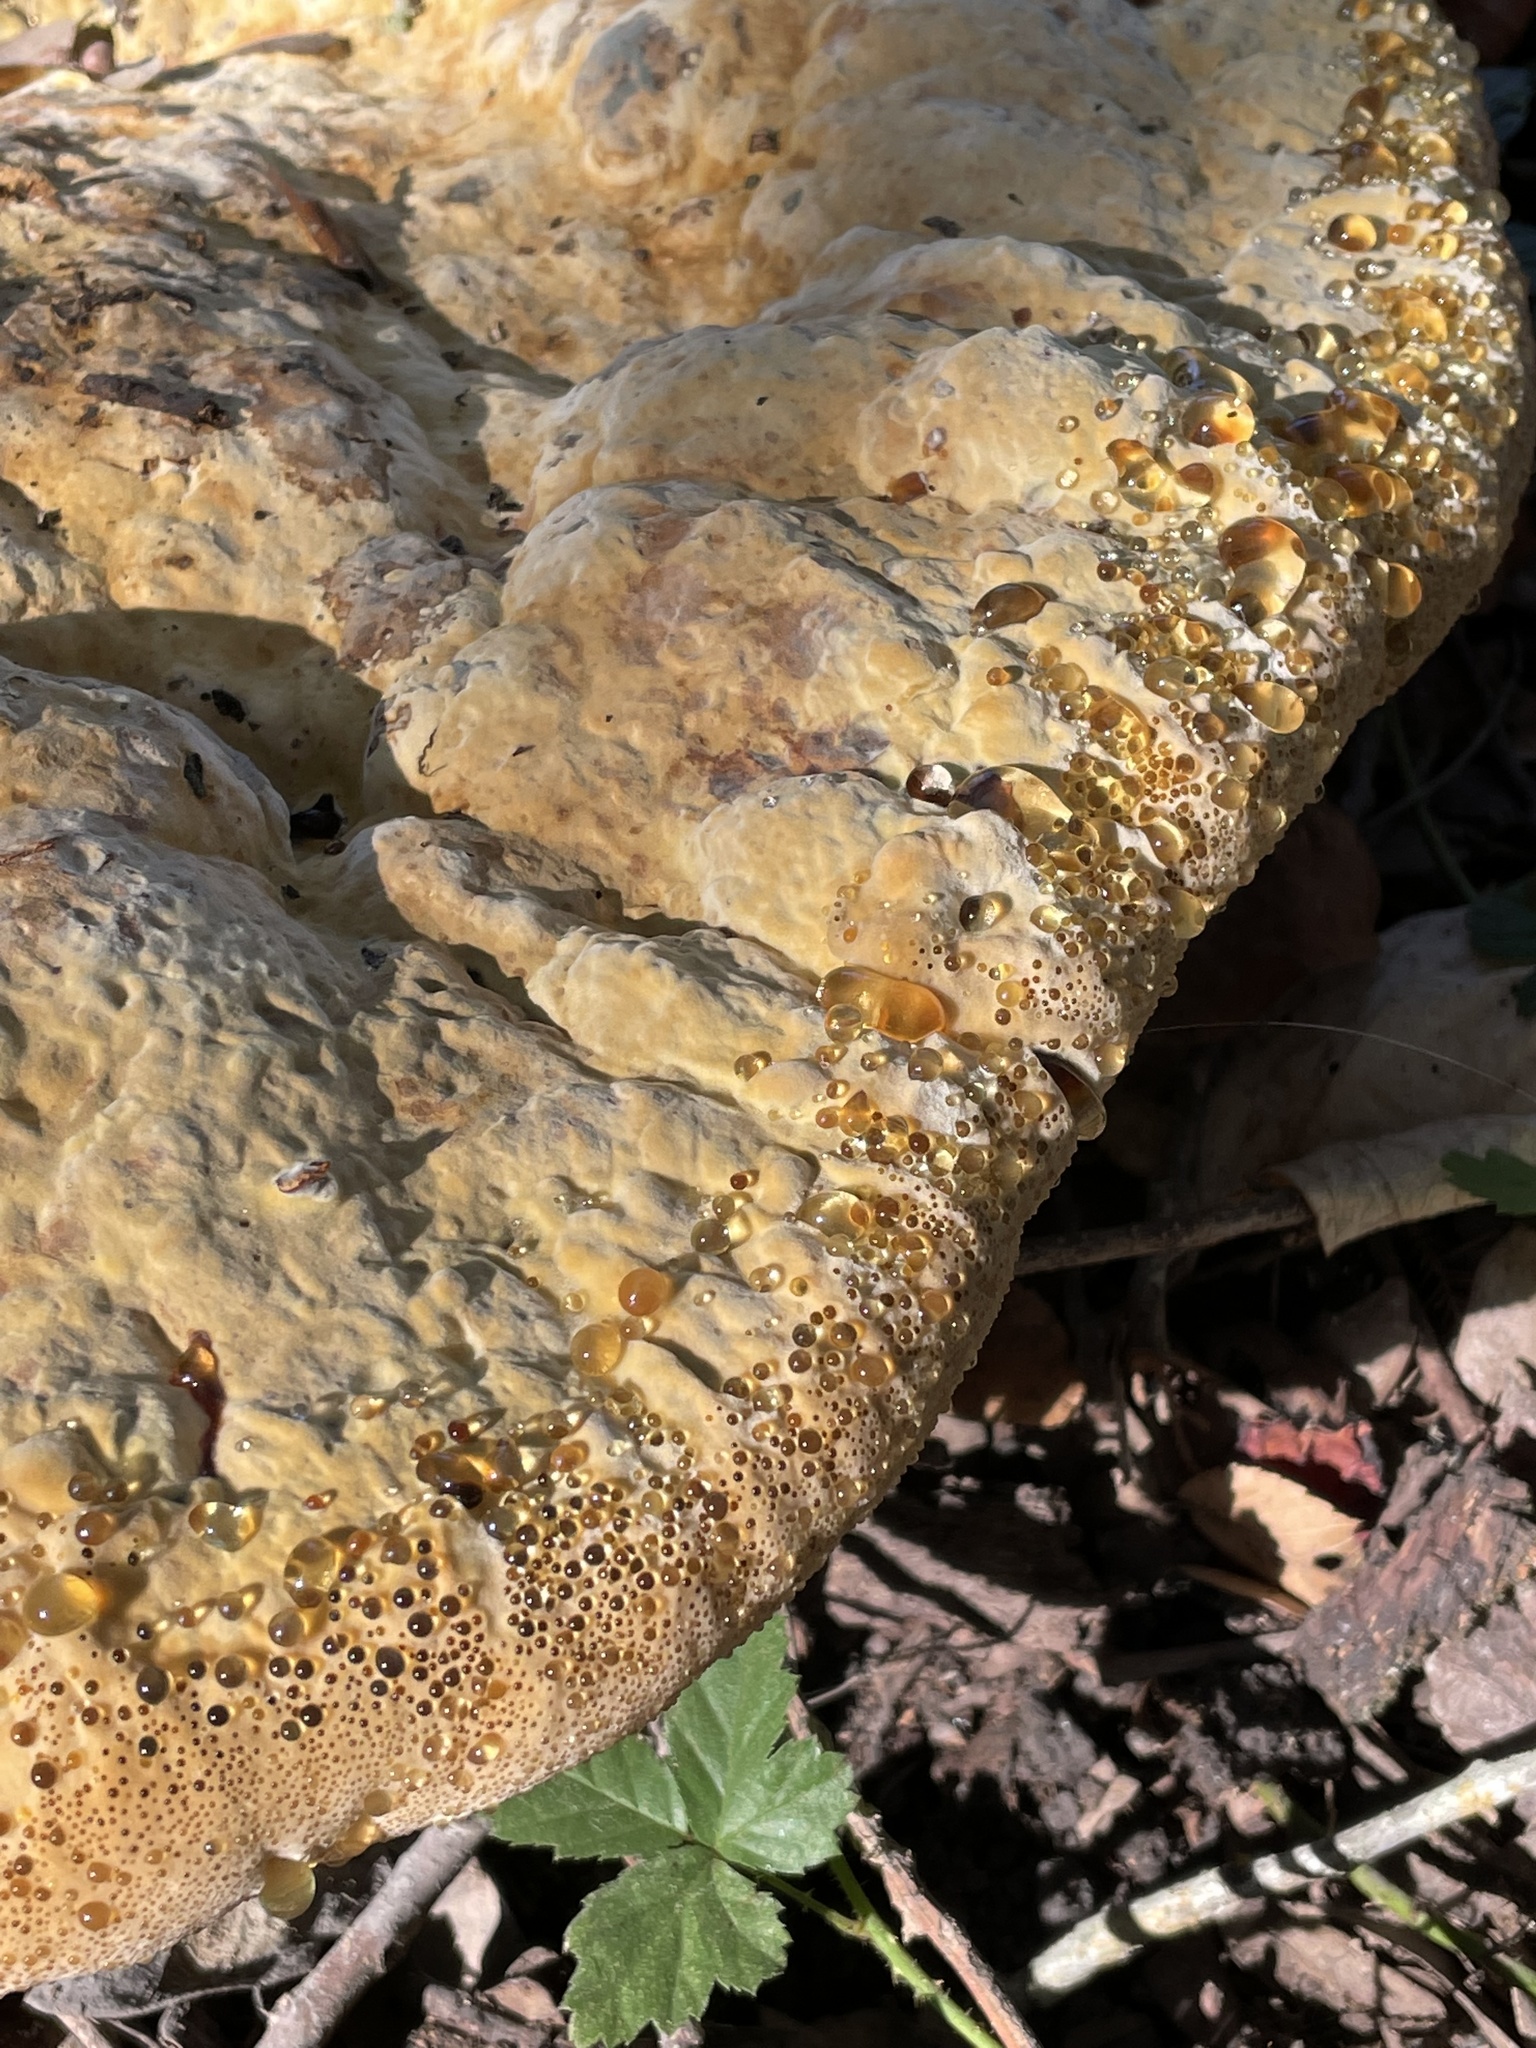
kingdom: Fungi
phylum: Basidiomycota
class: Agaricomycetes
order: Hymenochaetales
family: Hymenochaetaceae
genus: Pseudoinonotus
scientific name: Pseudoinonotus dryadeus
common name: Oak bracket
